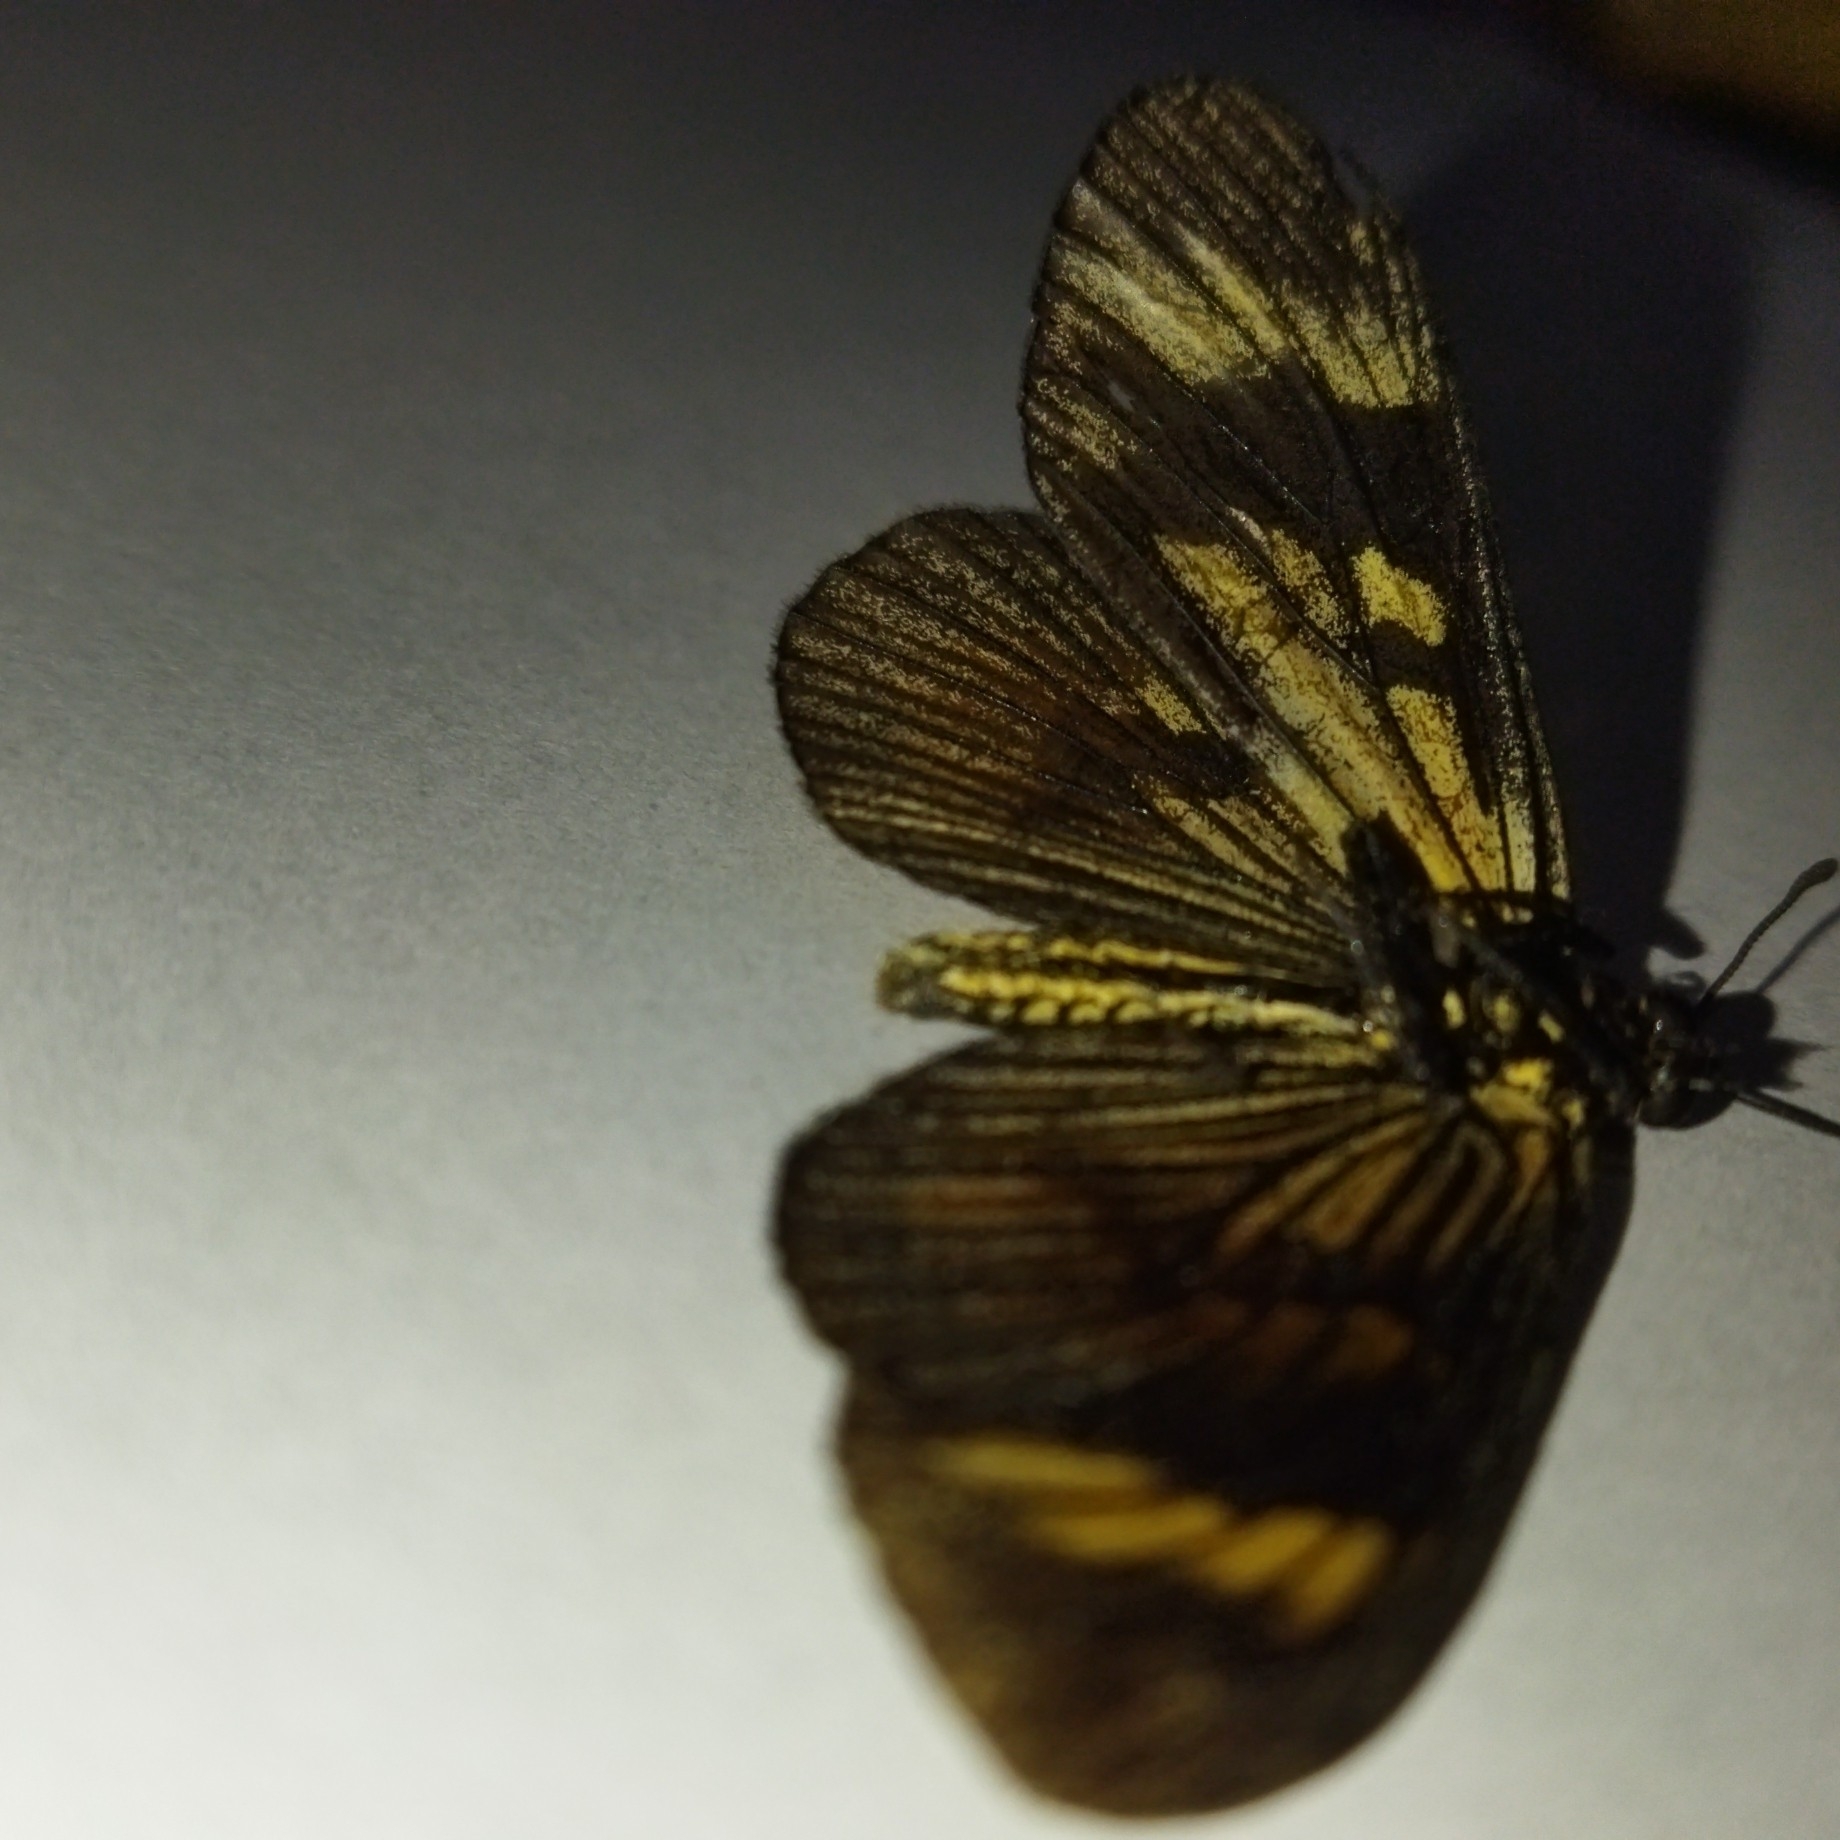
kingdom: Animalia
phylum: Arthropoda
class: Insecta
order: Lepidoptera
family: Nymphalidae
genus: Actinote
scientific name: Actinote pellenea
